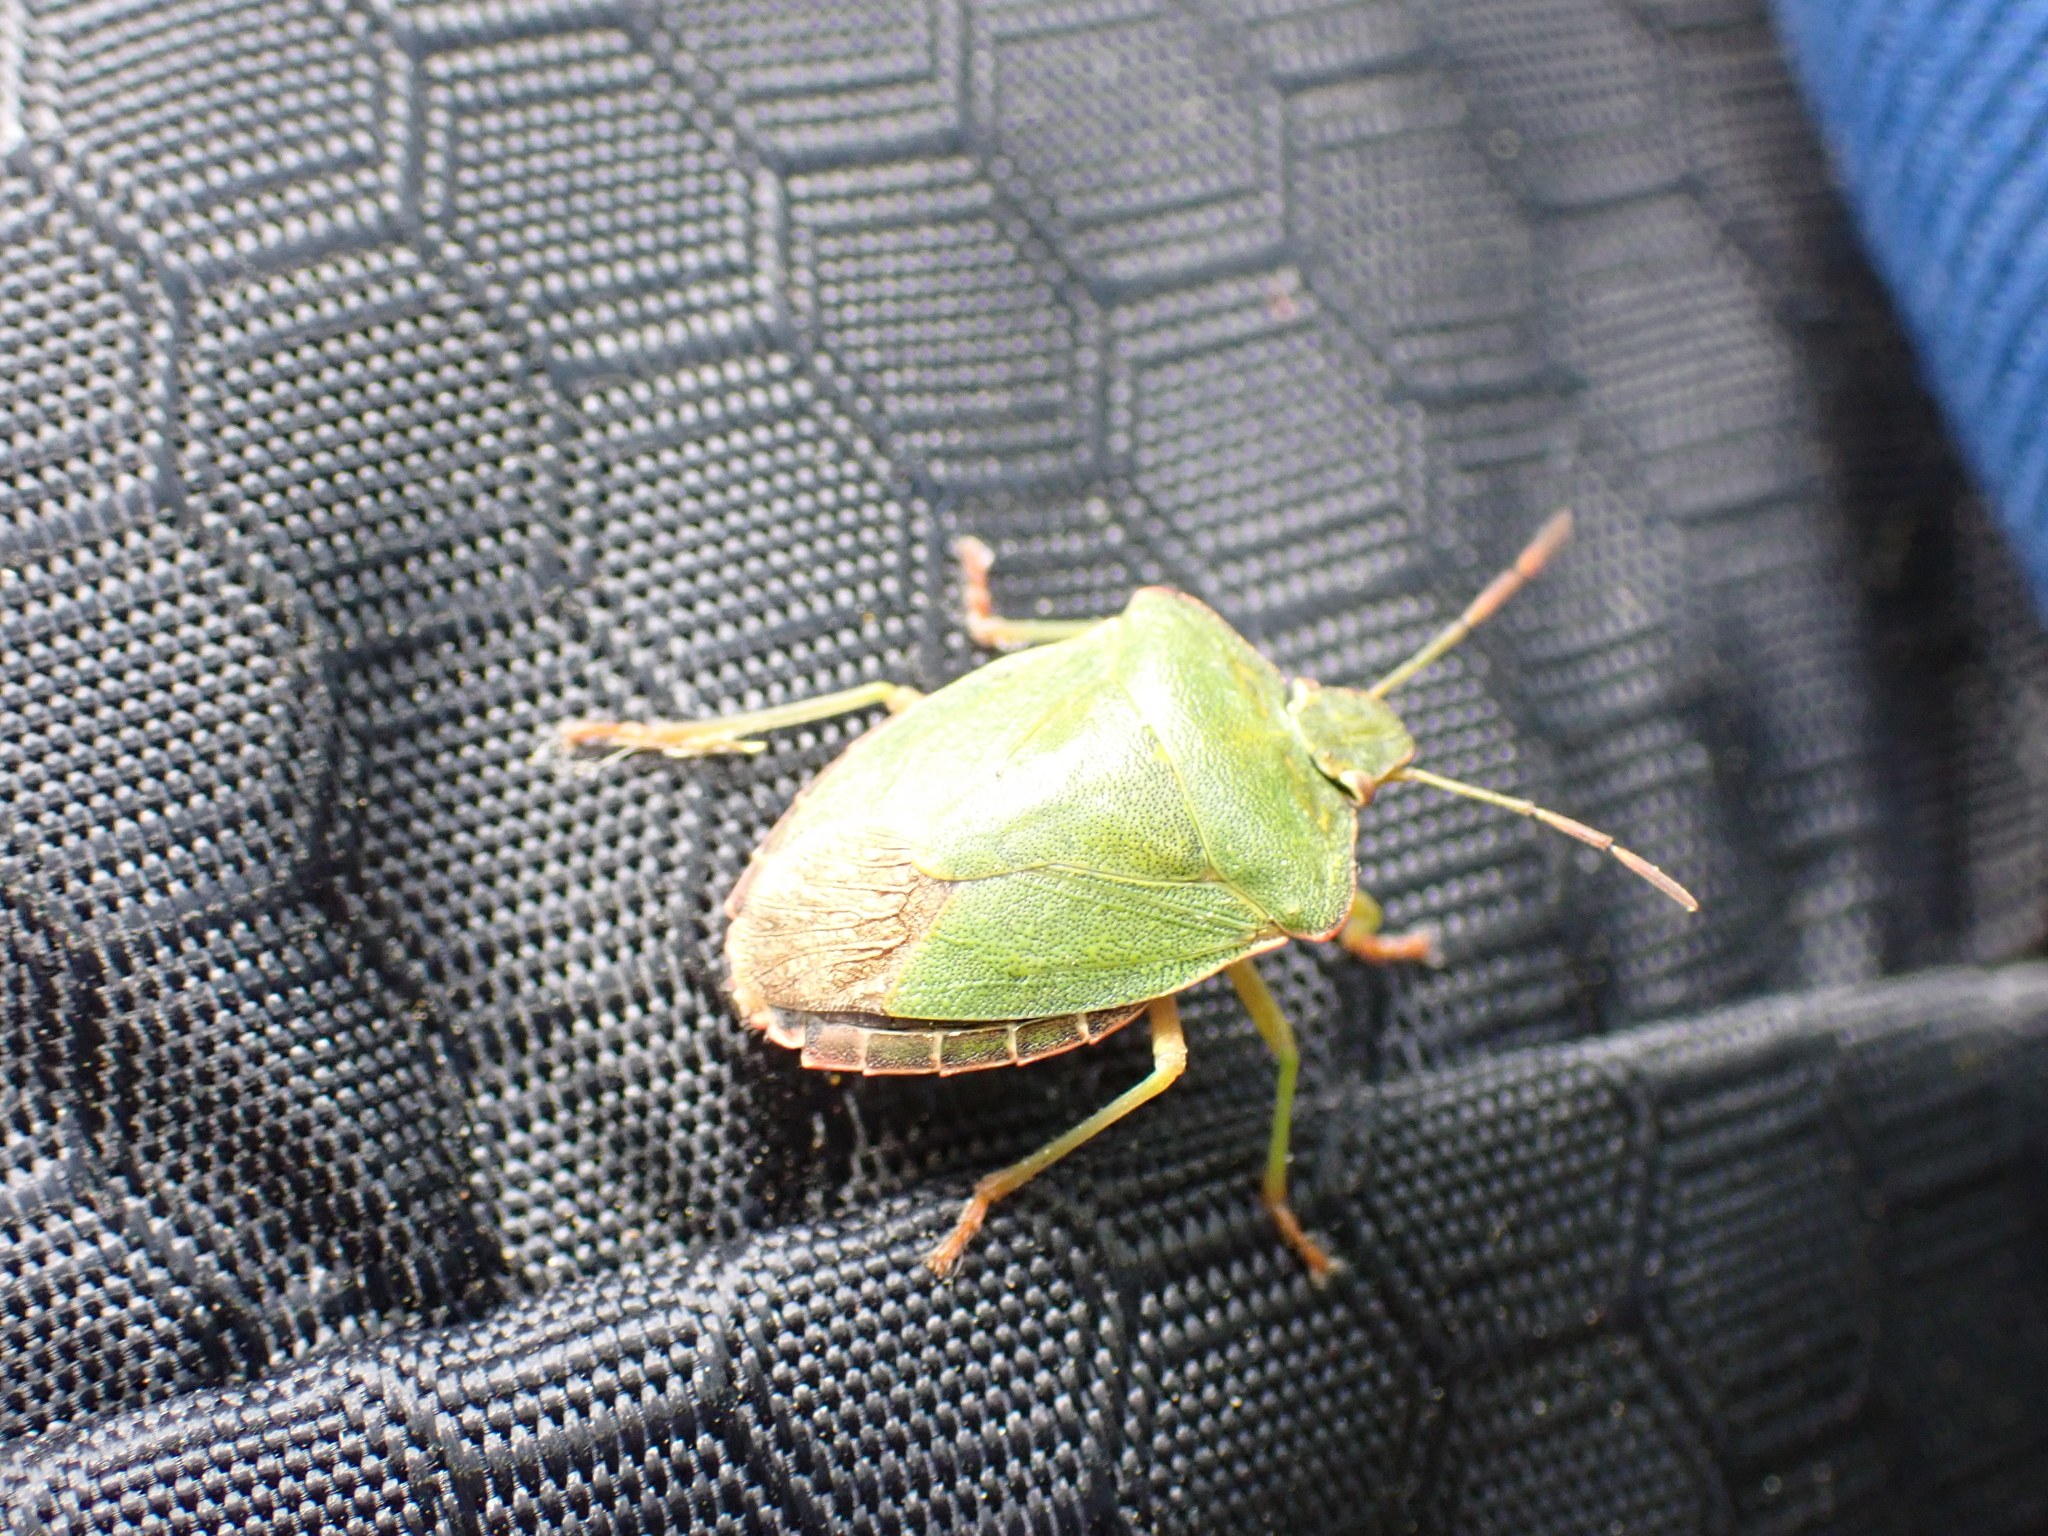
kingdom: Animalia
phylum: Arthropoda
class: Insecta
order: Hemiptera
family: Pentatomidae
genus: Palomena
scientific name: Palomena prasina
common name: Green shieldbug
